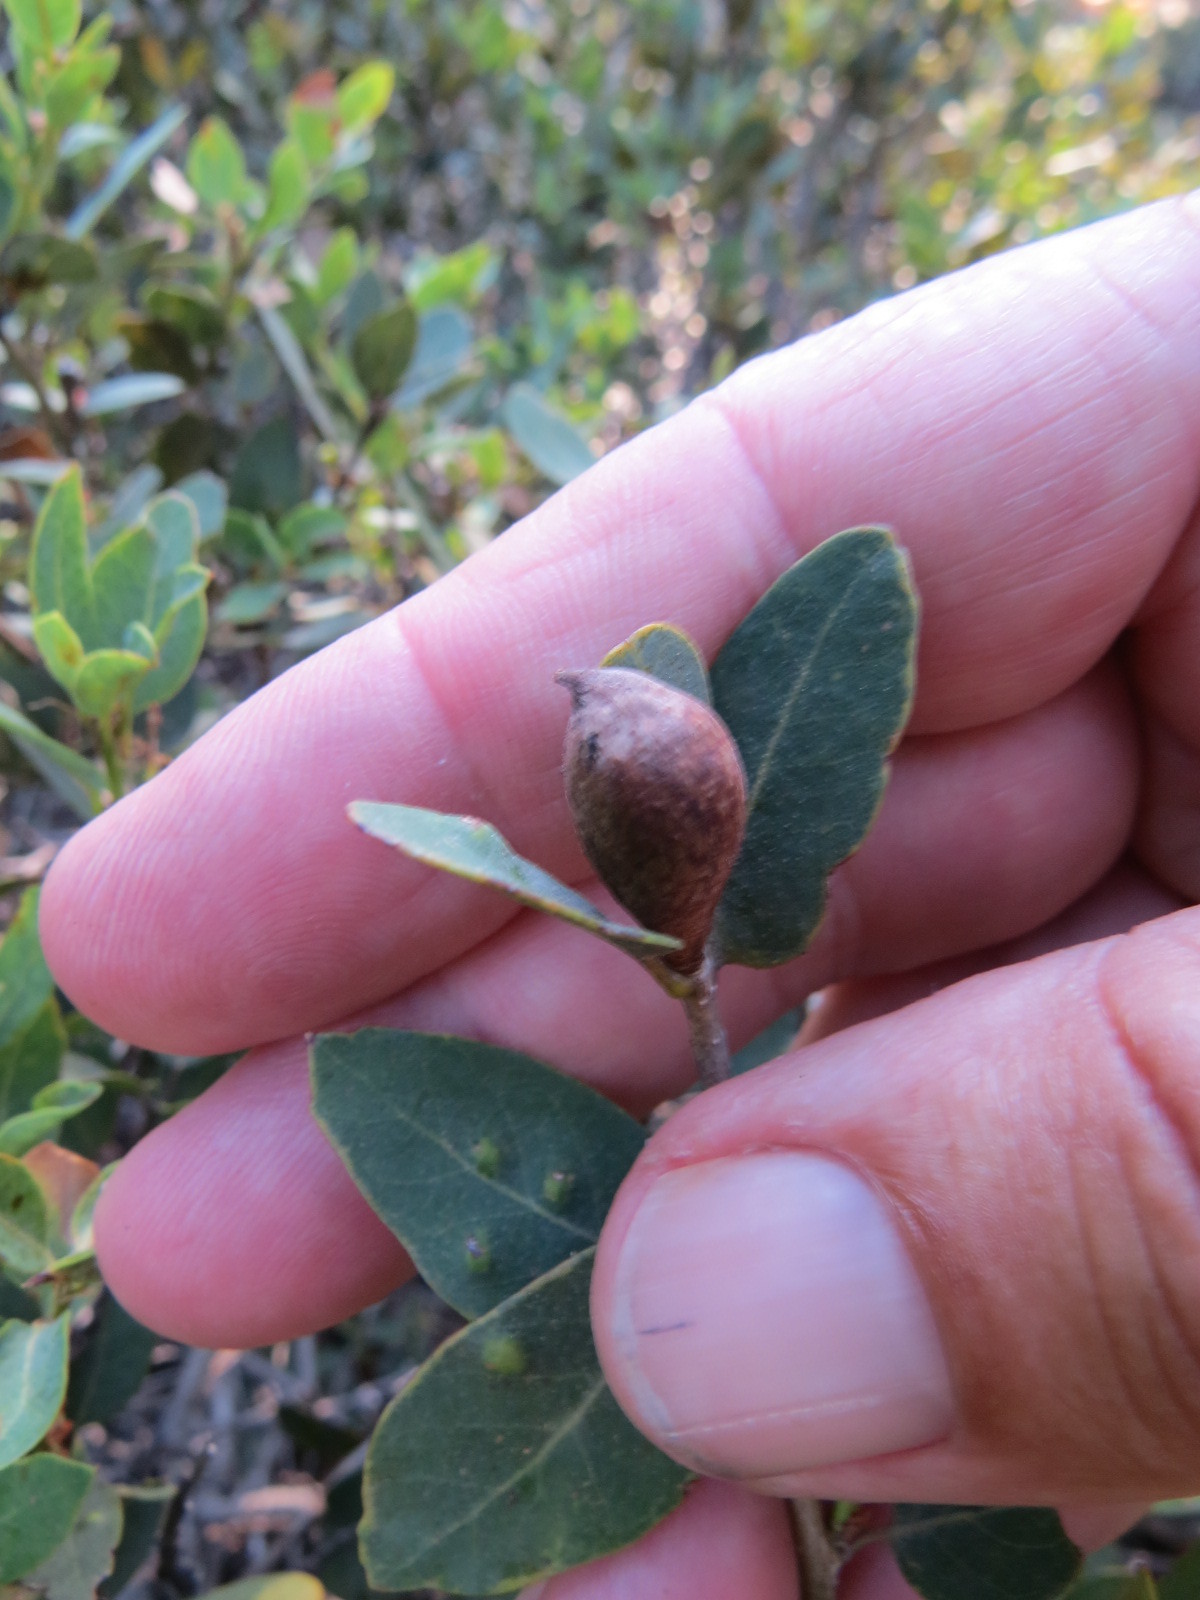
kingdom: Animalia
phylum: Arthropoda
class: Insecta
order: Hymenoptera
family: Cynipidae
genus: Heteroecus
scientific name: Heteroecus pacificus
